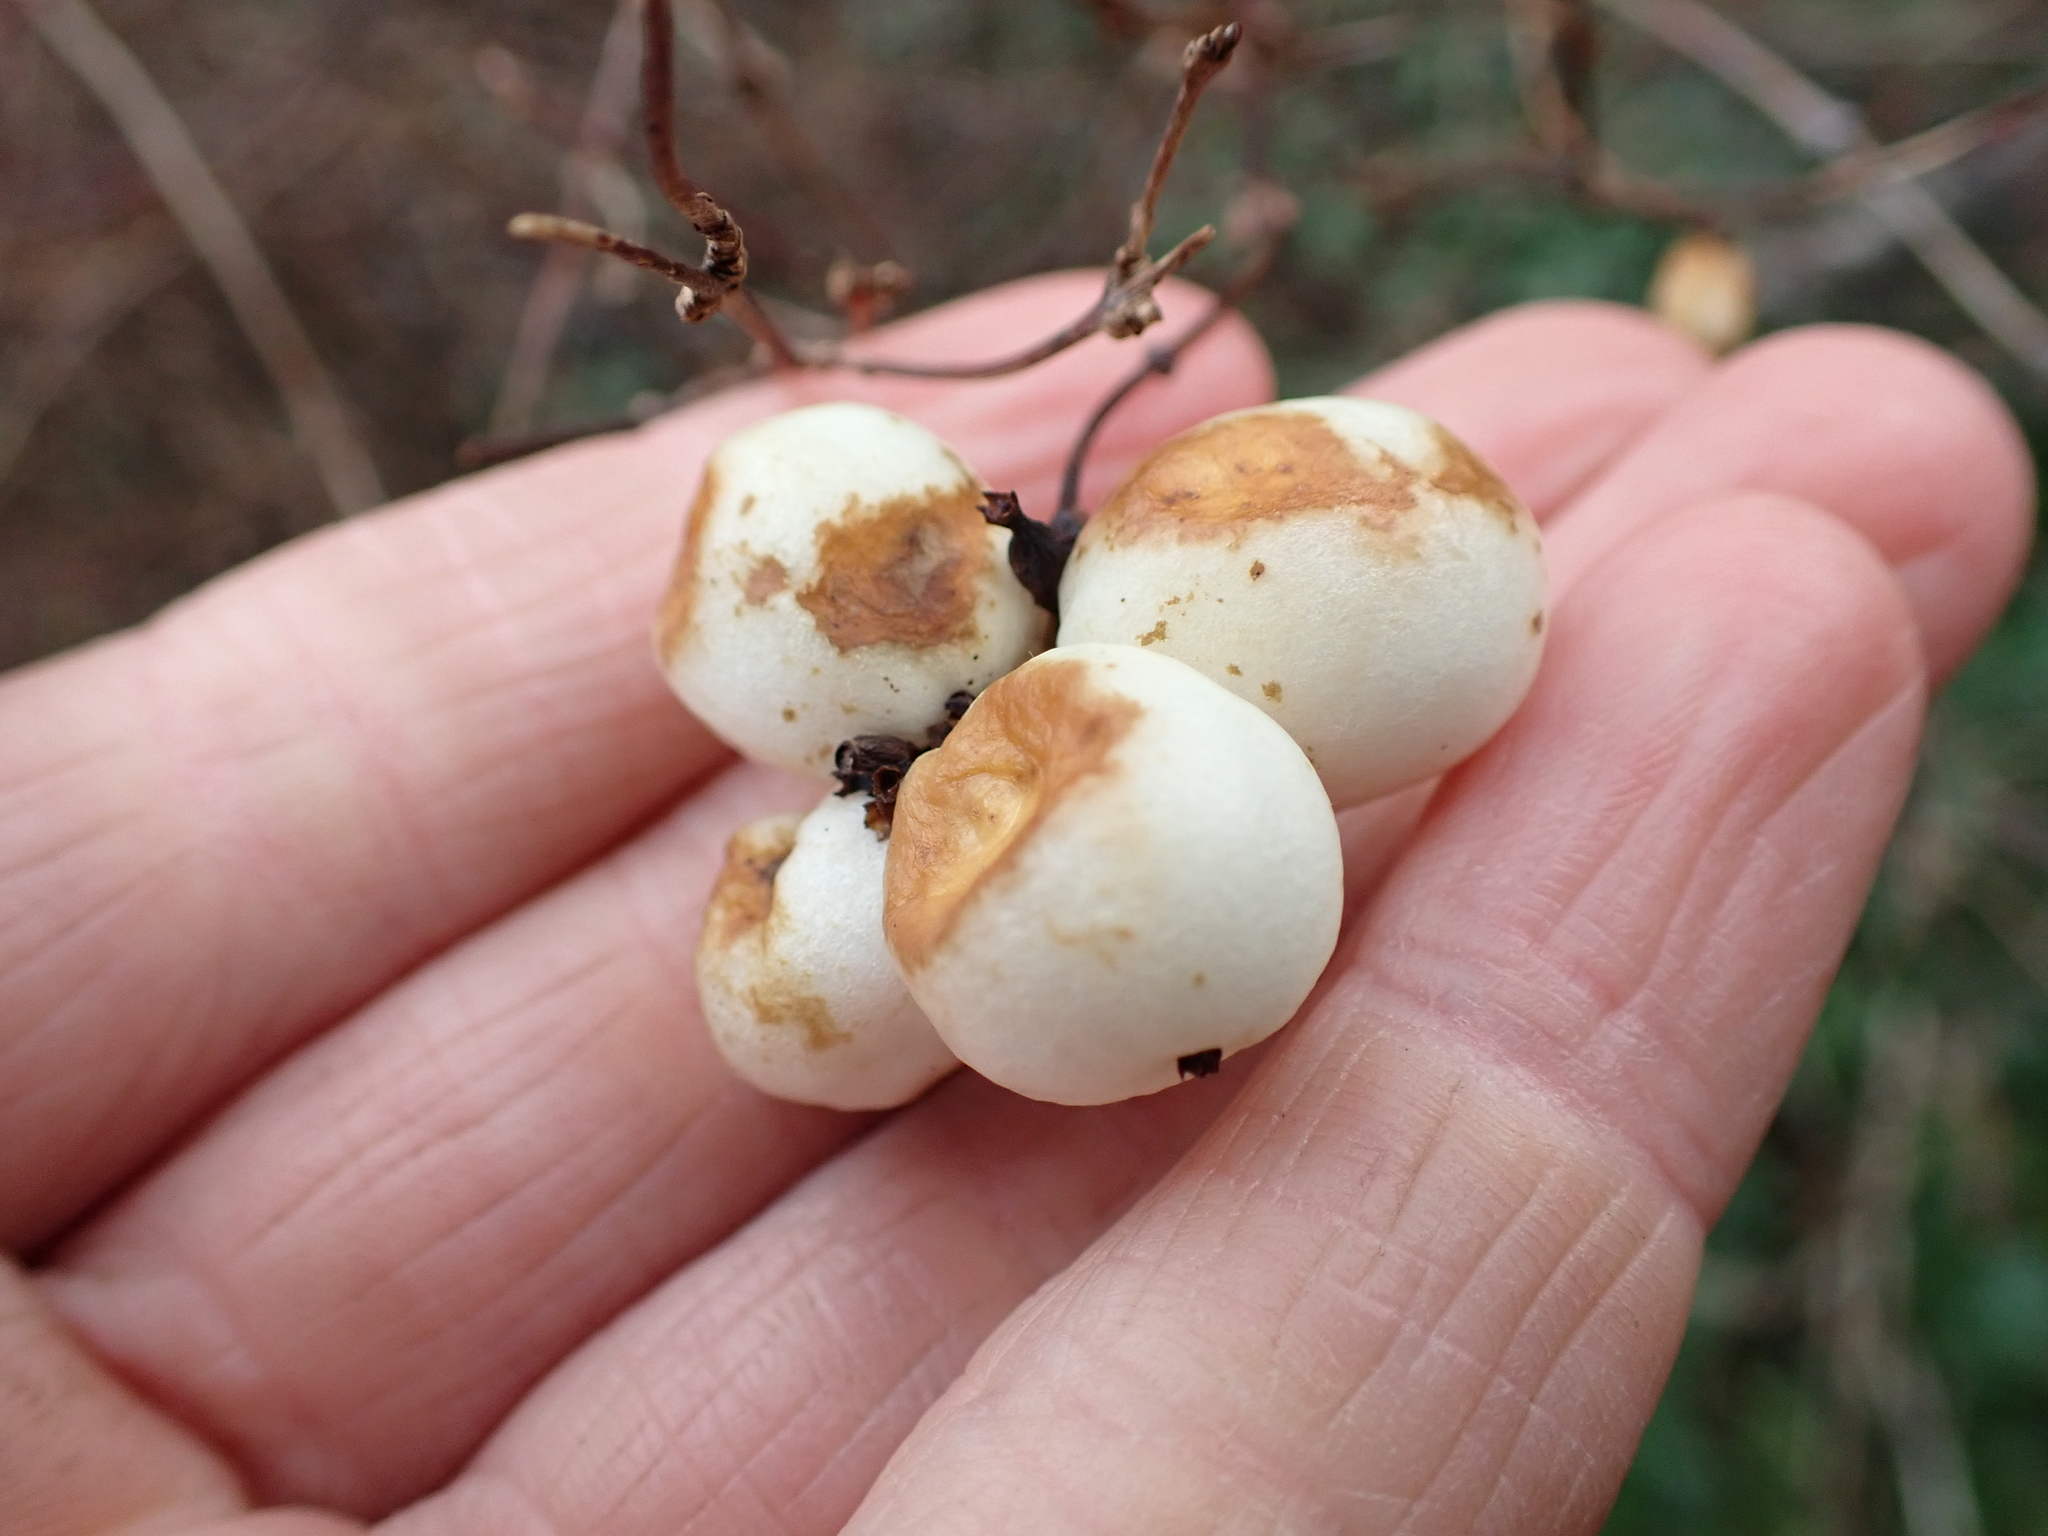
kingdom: Plantae
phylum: Tracheophyta
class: Magnoliopsida
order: Dipsacales
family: Caprifoliaceae
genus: Symphoricarpos
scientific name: Symphoricarpos albus
